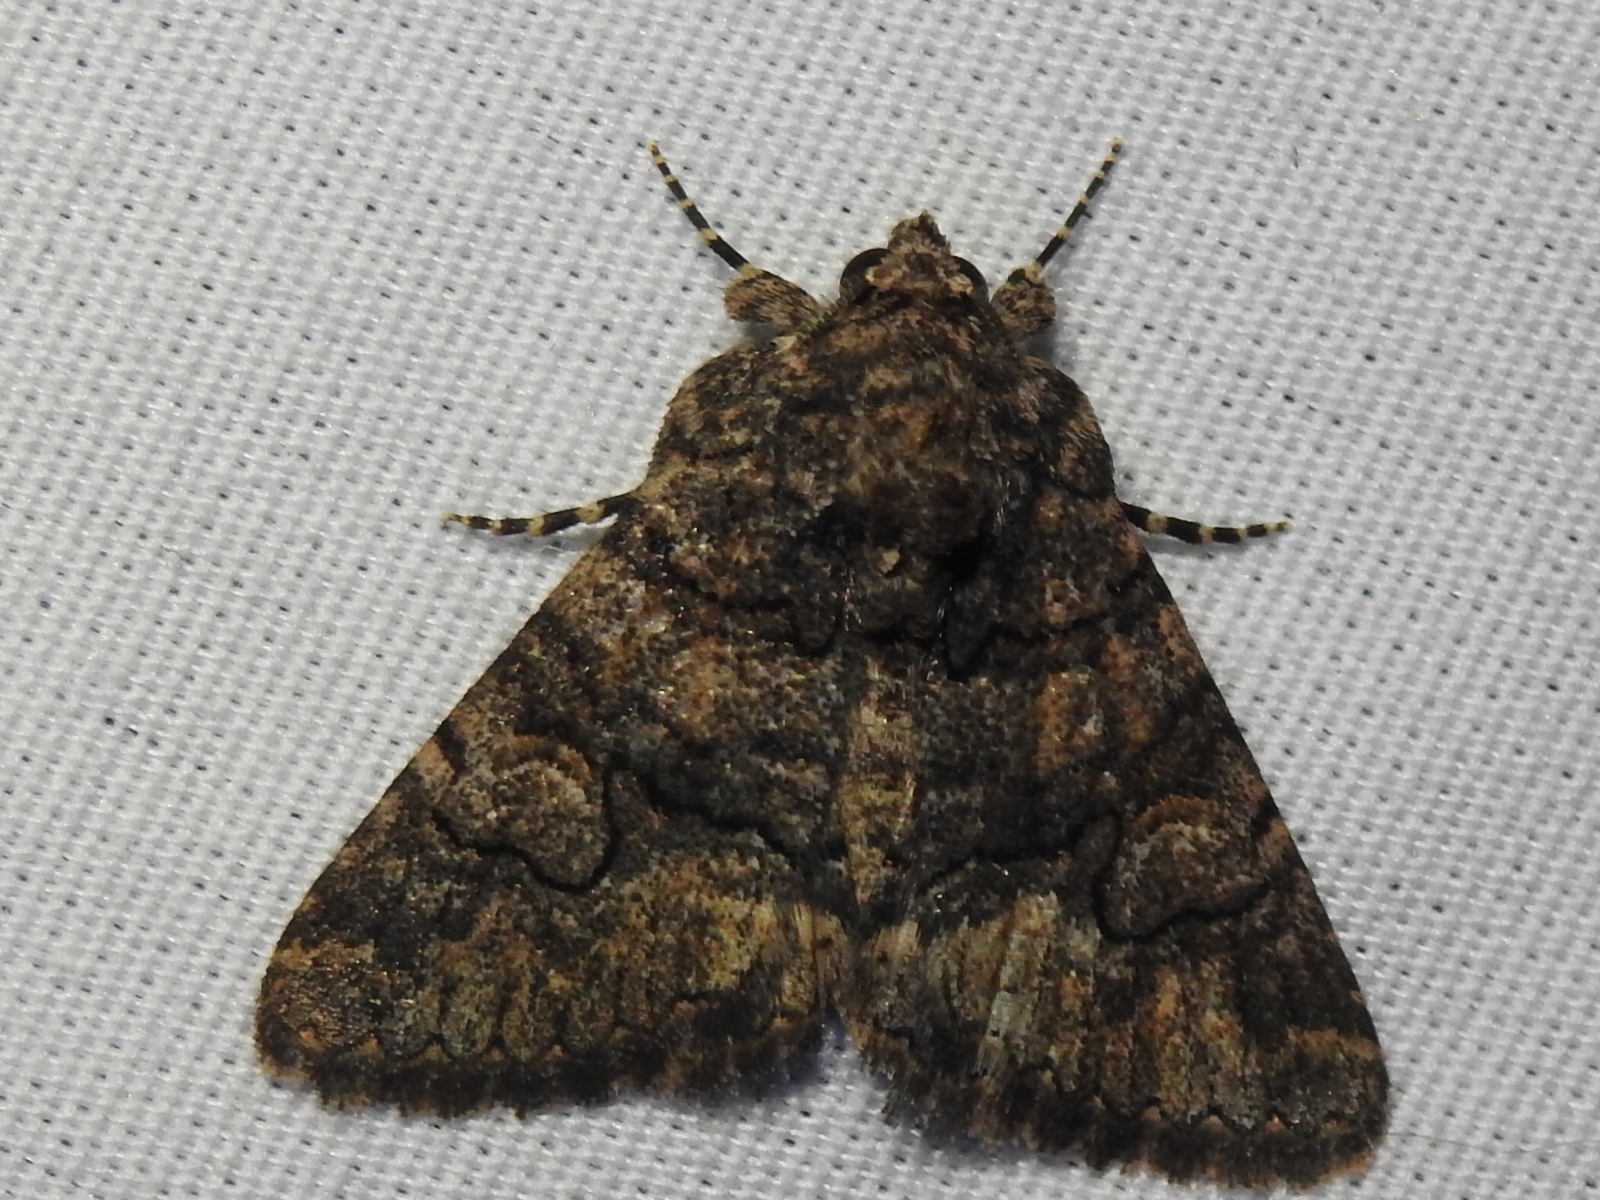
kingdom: Animalia
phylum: Arthropoda
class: Insecta
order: Lepidoptera
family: Erebidae
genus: Elousa
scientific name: Elousa mima
